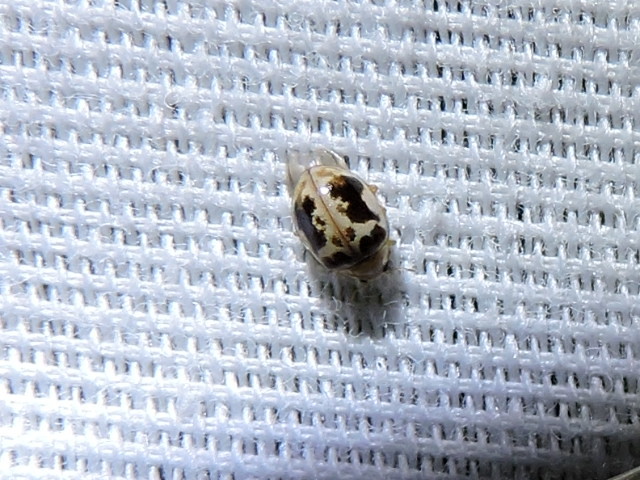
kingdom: Animalia
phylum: Arthropoda
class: Insecta
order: Coleoptera
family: Coccinellidae
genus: Psyllobora
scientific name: Psyllobora renifer
